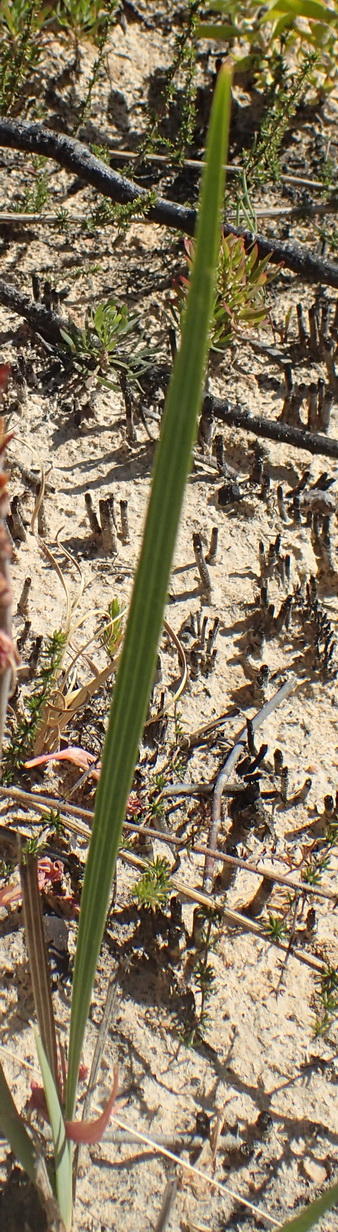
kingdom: Plantae
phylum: Tracheophyta
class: Liliopsida
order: Asparagales
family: Iridaceae
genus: Tritoniopsis
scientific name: Tritoniopsis antholyza
